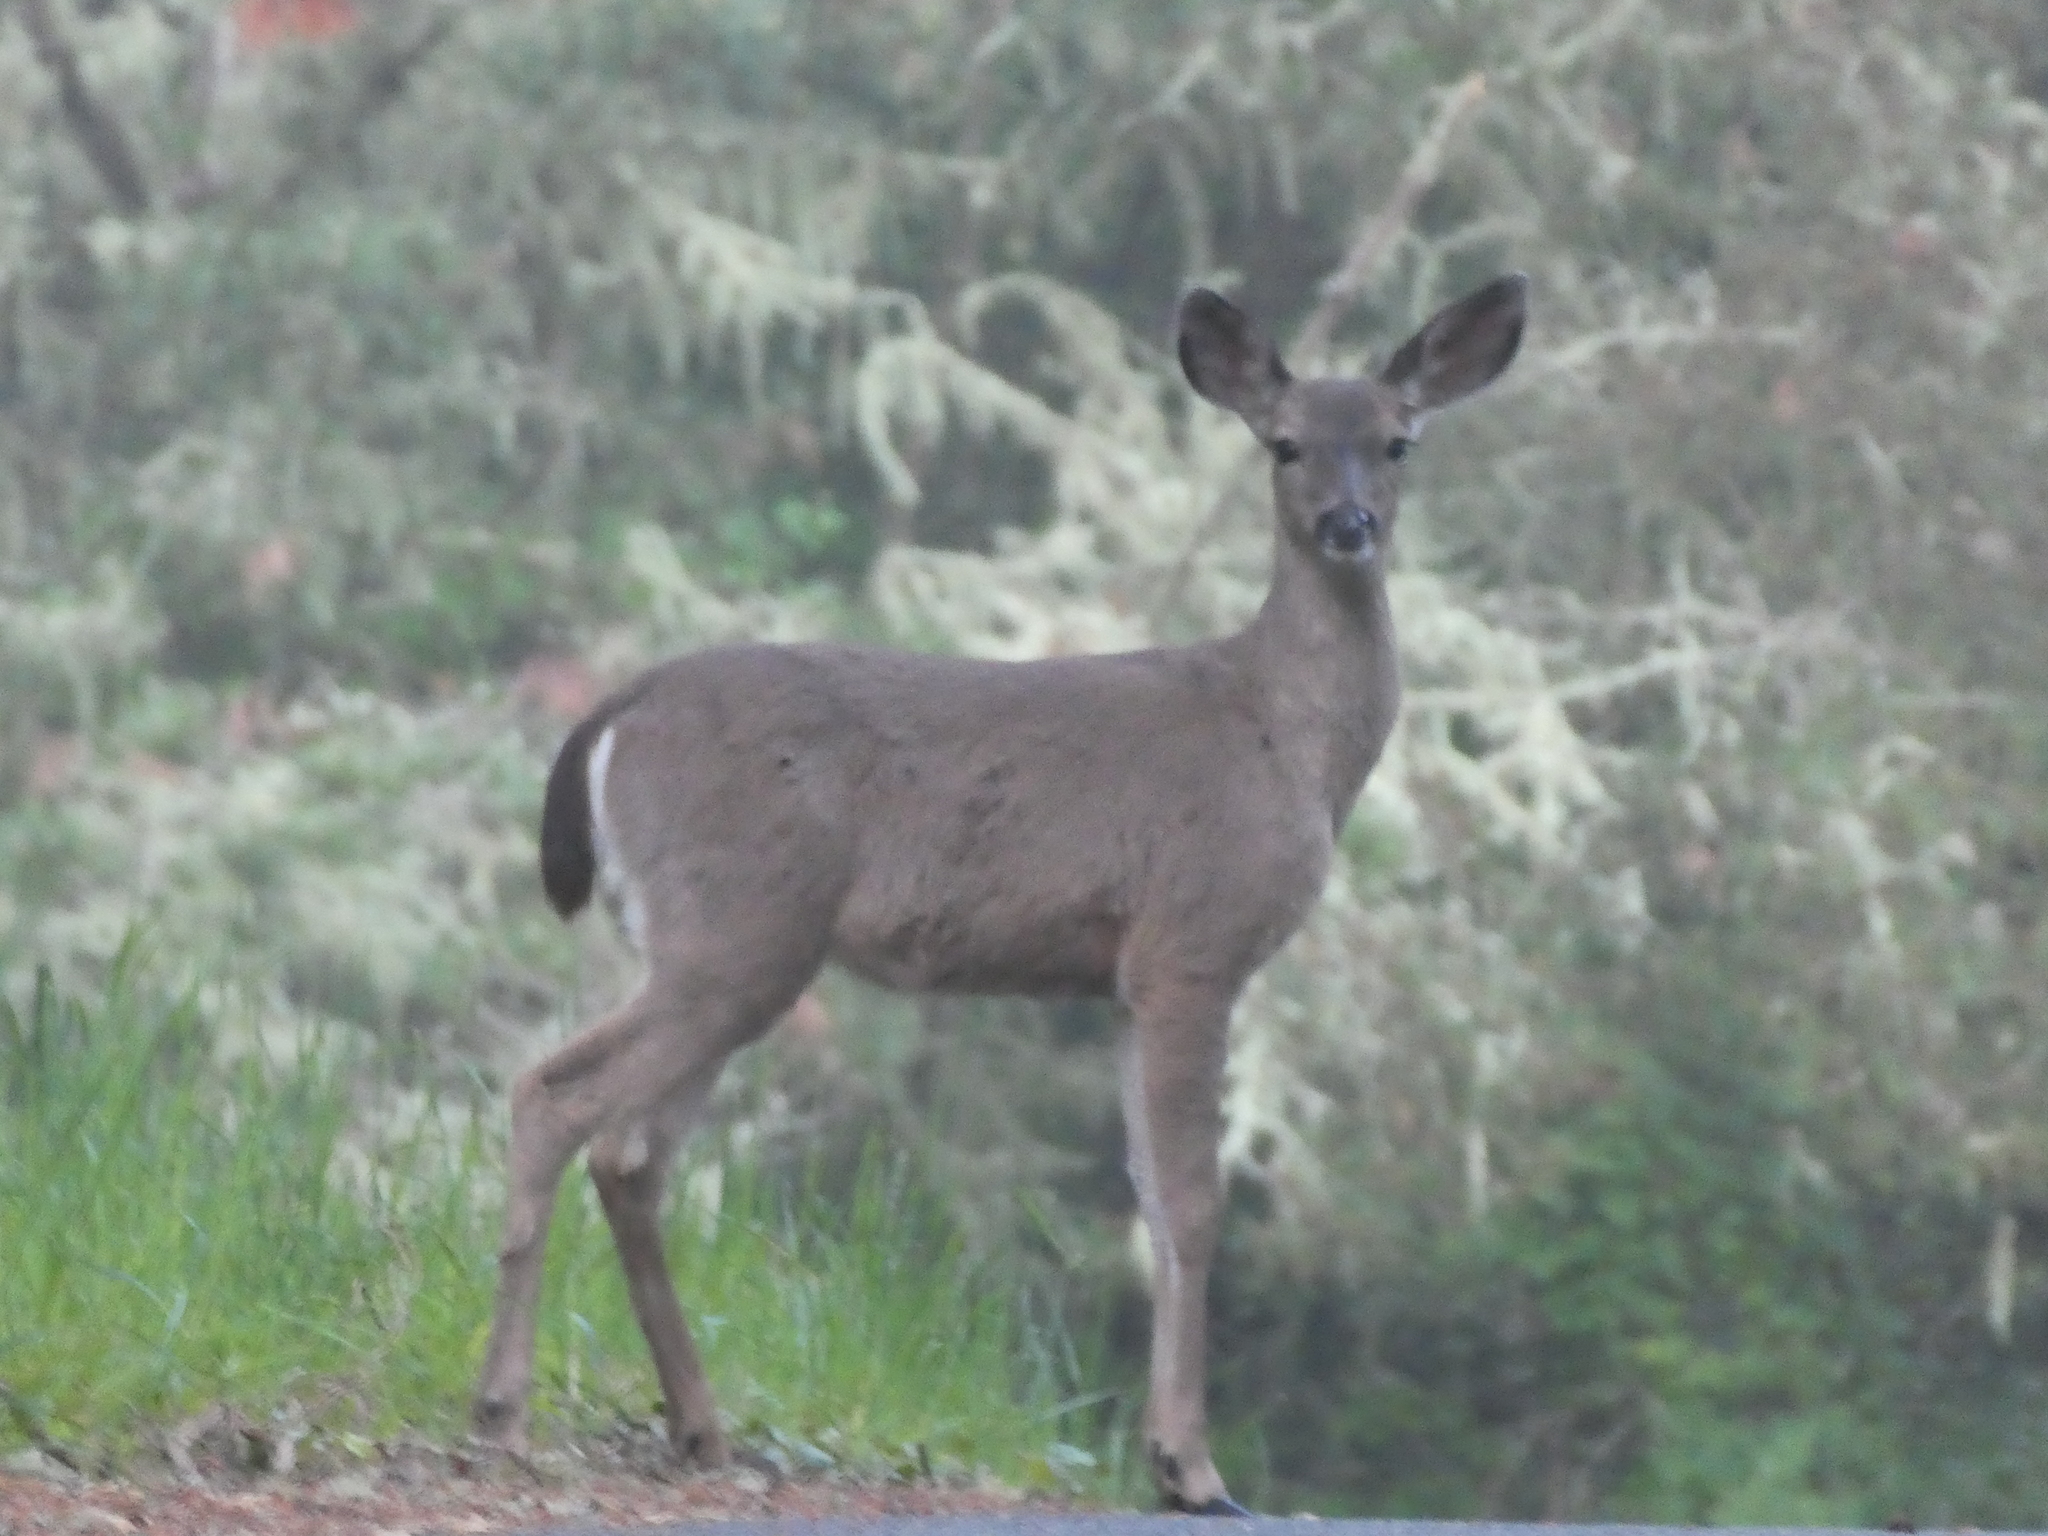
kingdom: Animalia
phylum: Chordata
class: Mammalia
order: Artiodactyla
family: Cervidae
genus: Odocoileus
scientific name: Odocoileus hemionus
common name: Mule deer
